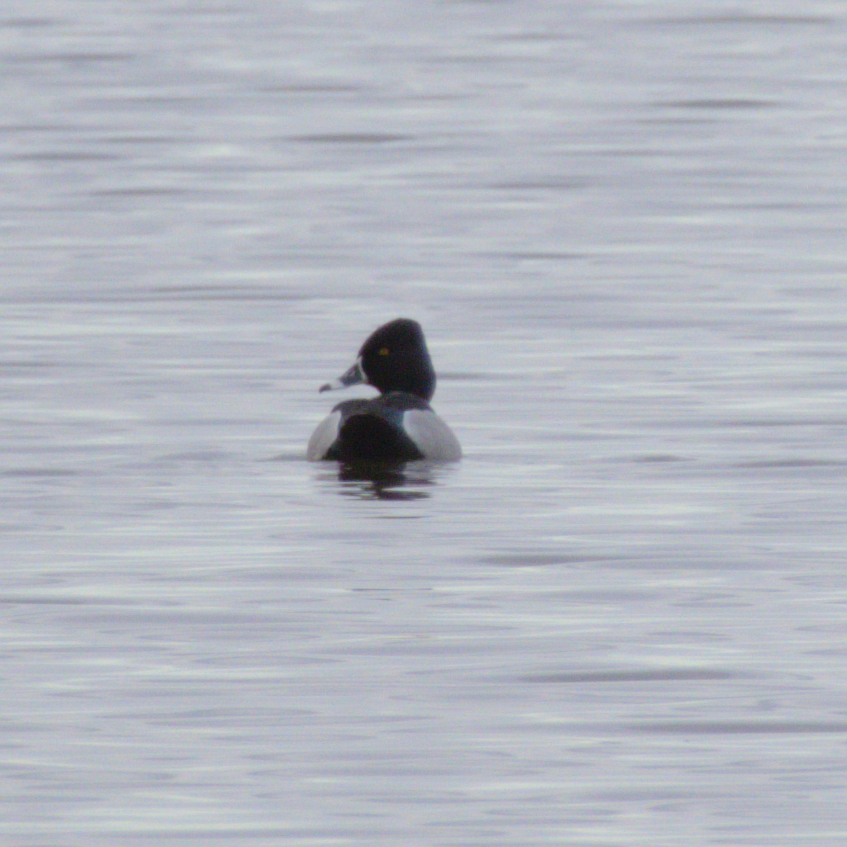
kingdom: Animalia
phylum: Chordata
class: Aves
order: Anseriformes
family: Anatidae
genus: Aythya
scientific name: Aythya collaris
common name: Ring-necked duck
